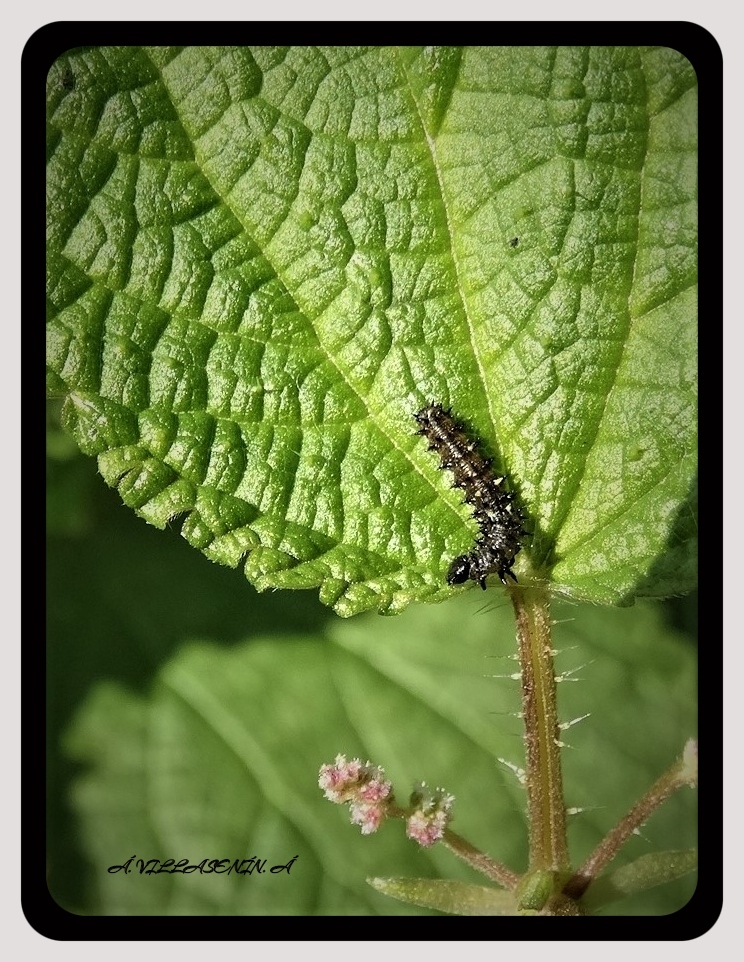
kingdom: Animalia
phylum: Arthropoda
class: Insecta
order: Lepidoptera
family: Nymphalidae
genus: Vanessa
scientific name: Vanessa atalanta
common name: Red admiral
